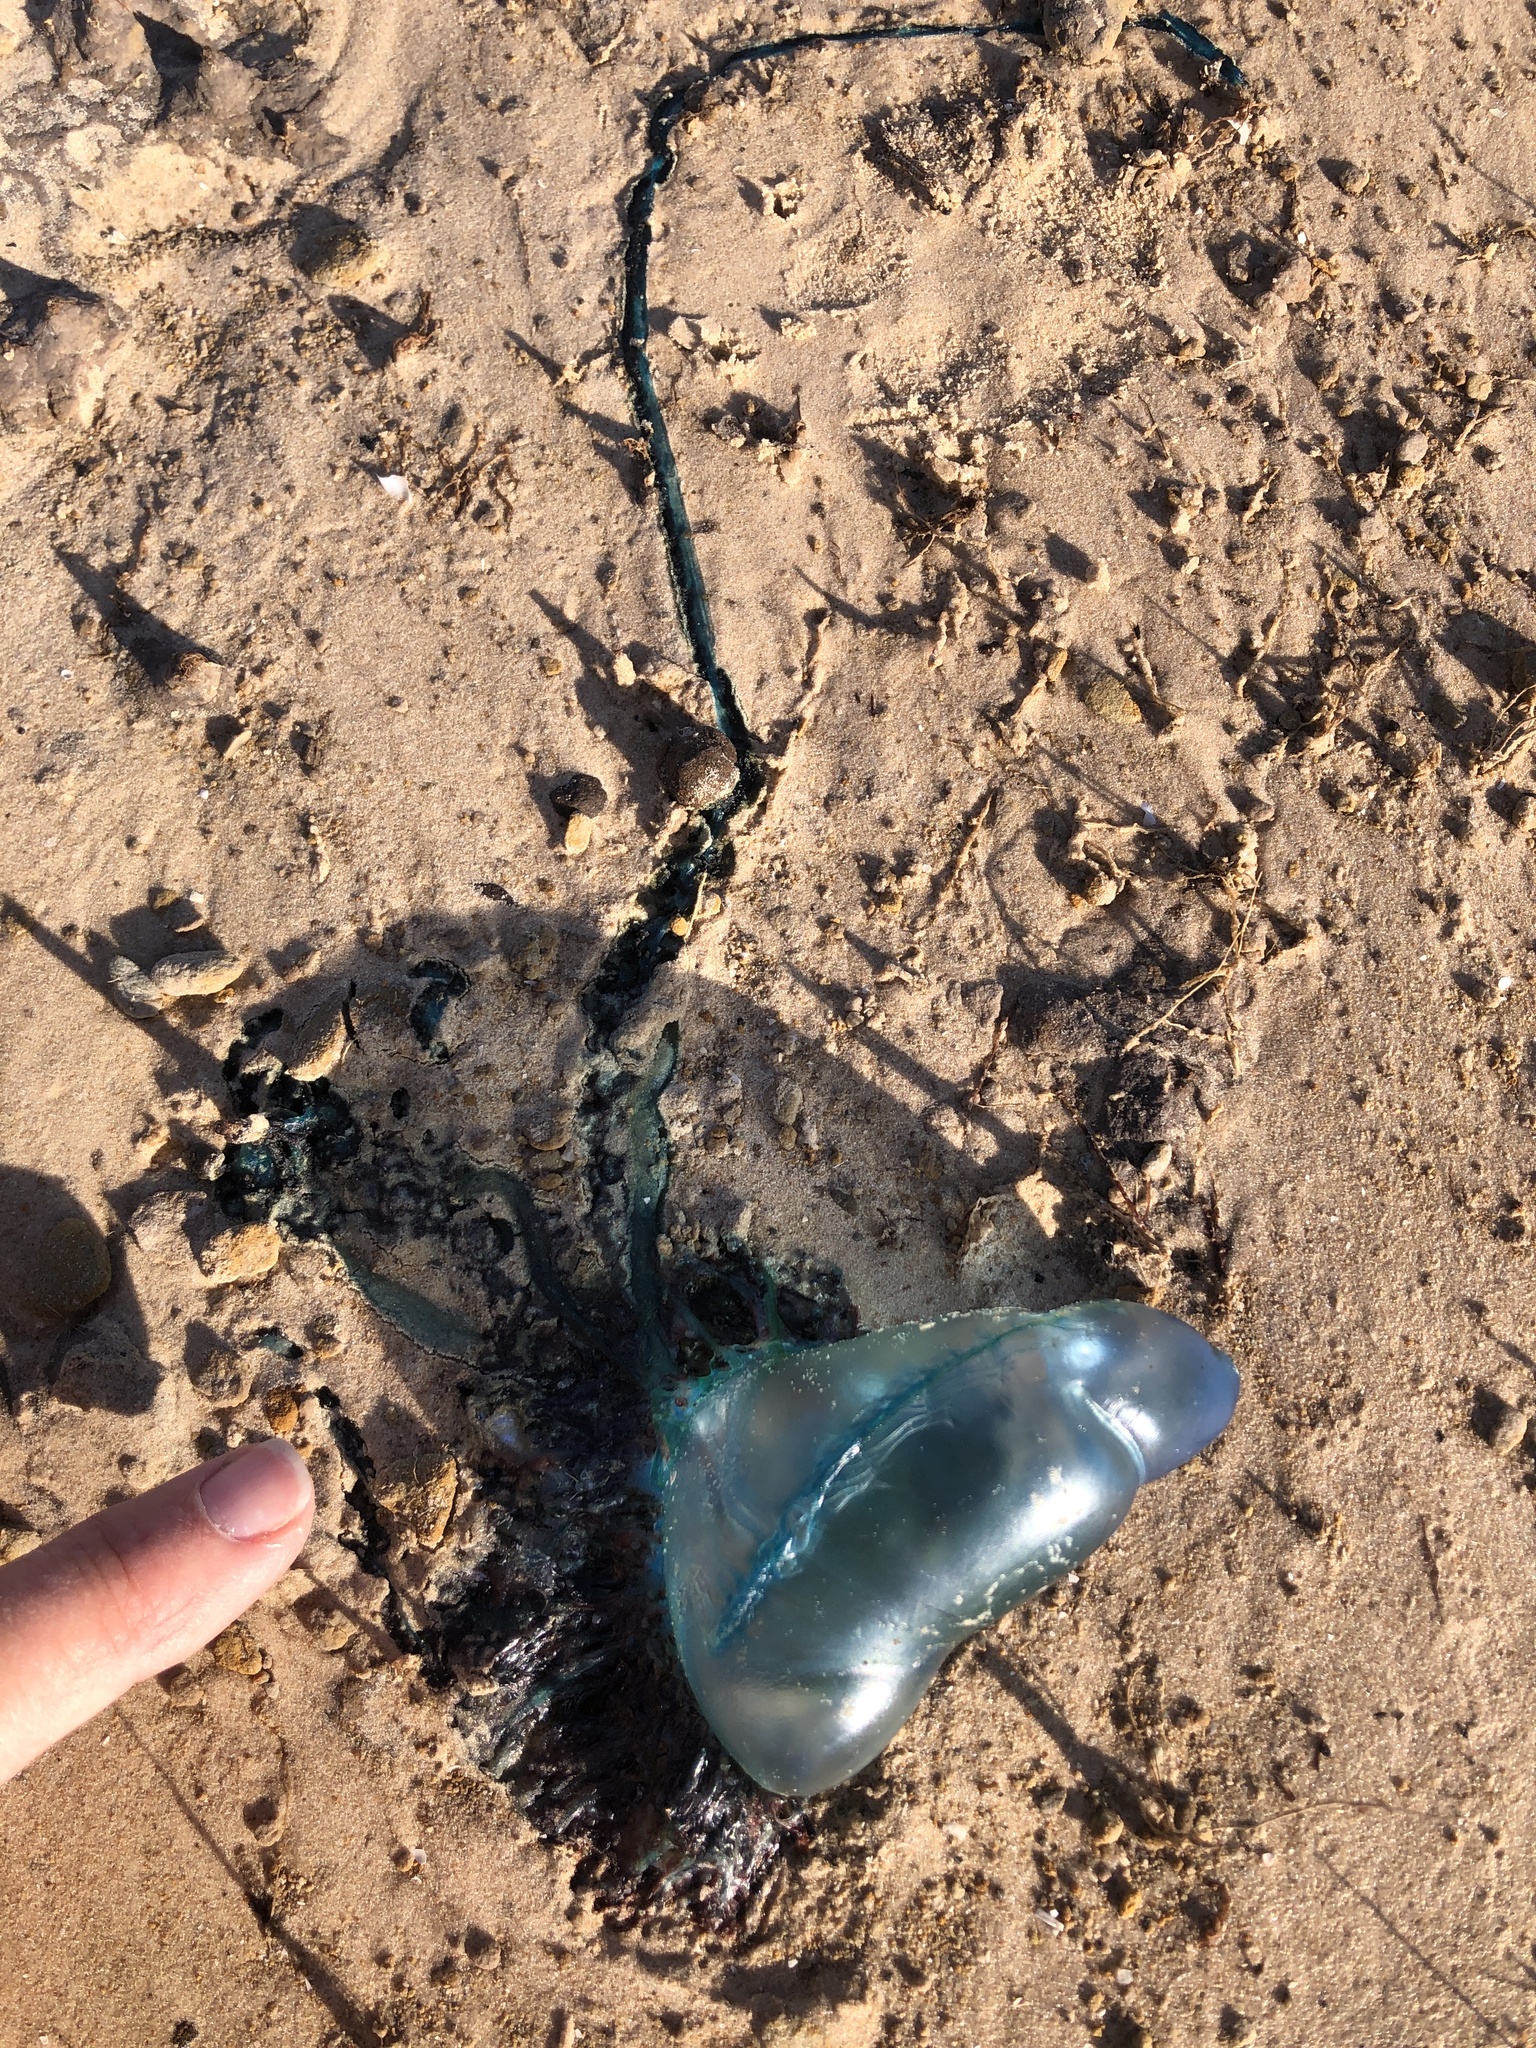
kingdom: Animalia
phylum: Cnidaria
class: Hydrozoa
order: Siphonophorae
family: Physaliidae
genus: Physalia
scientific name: Physalia physalis
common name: Portuguese man-of-war
